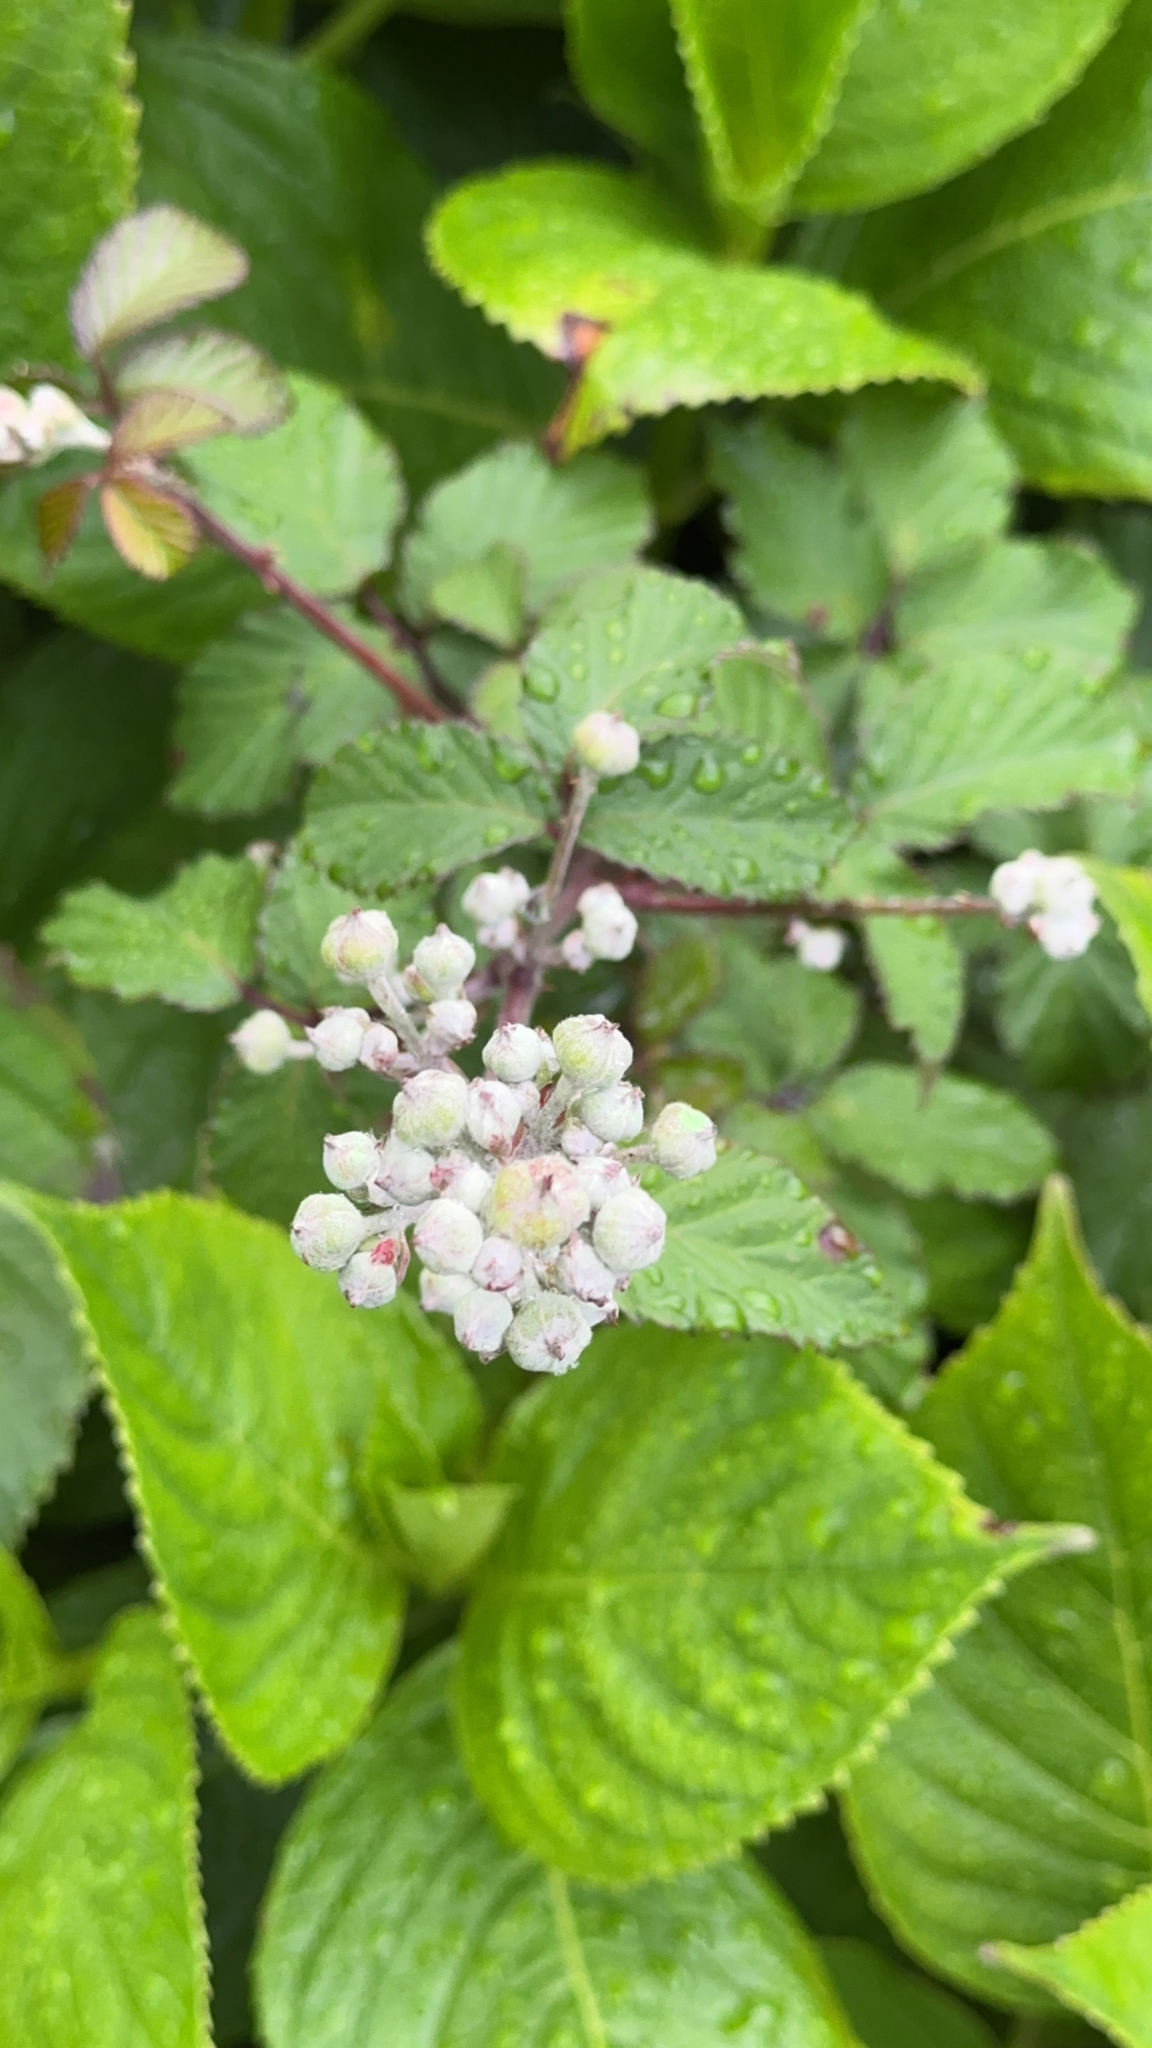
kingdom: Plantae
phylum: Tracheophyta
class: Magnoliopsida
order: Rosales
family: Rosaceae
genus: Rubus
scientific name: Rubus ulmifolius
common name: Elmleaf blackberry
